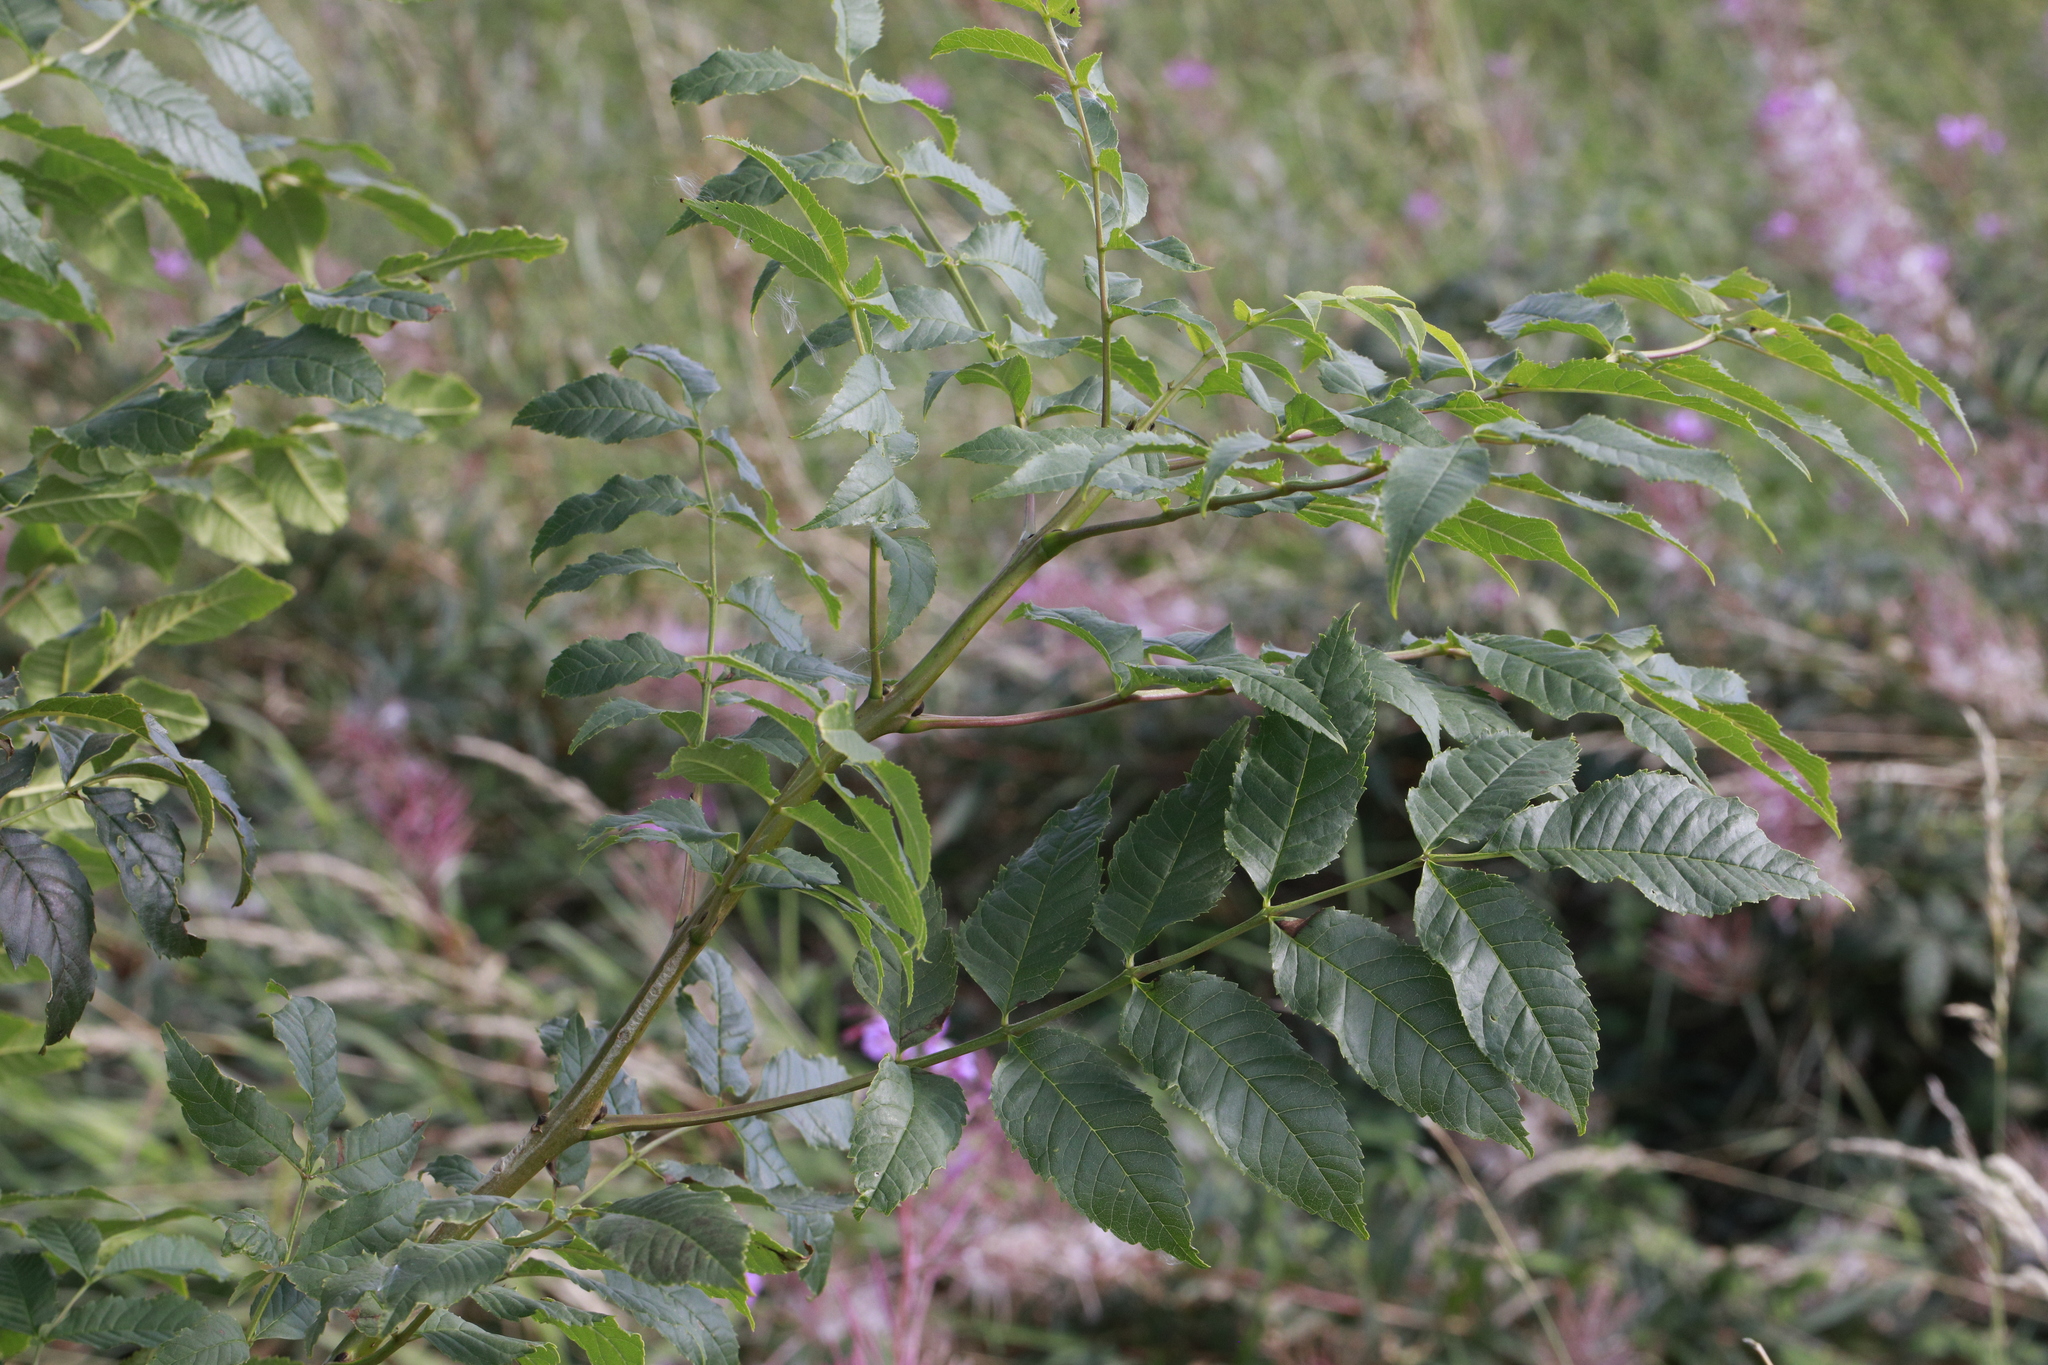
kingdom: Plantae
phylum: Tracheophyta
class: Magnoliopsida
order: Lamiales
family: Oleaceae
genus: Fraxinus
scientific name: Fraxinus excelsior
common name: European ash
